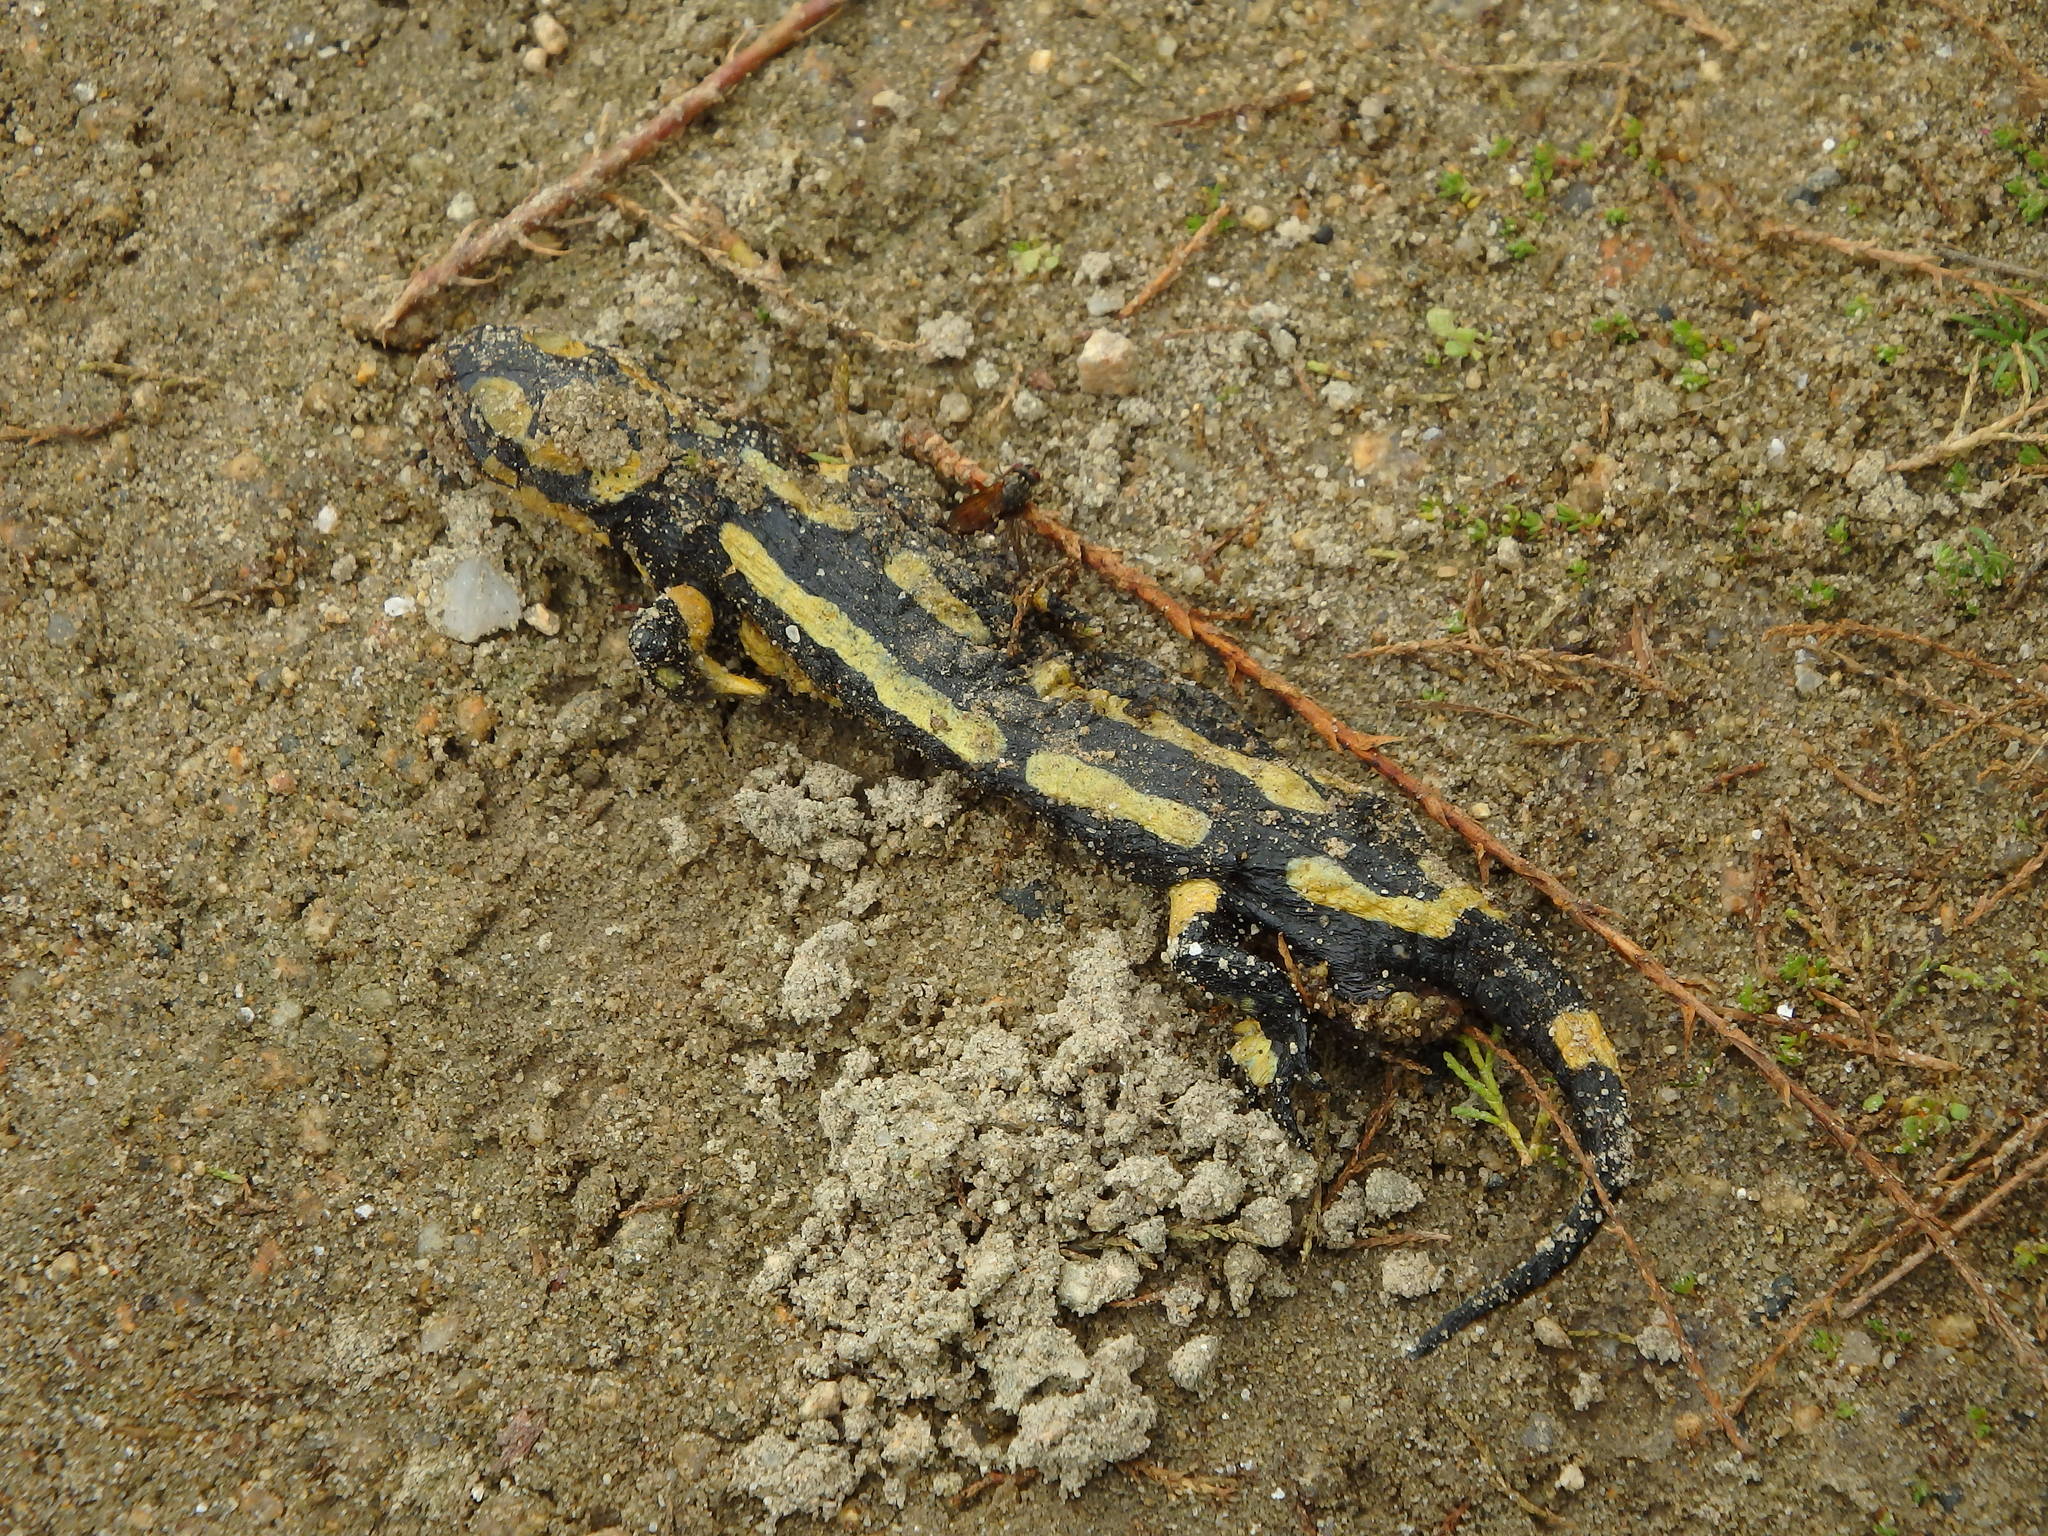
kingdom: Animalia
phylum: Chordata
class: Amphibia
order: Caudata
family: Salamandridae
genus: Salamandra
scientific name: Salamandra salamandra
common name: Fire salamander
